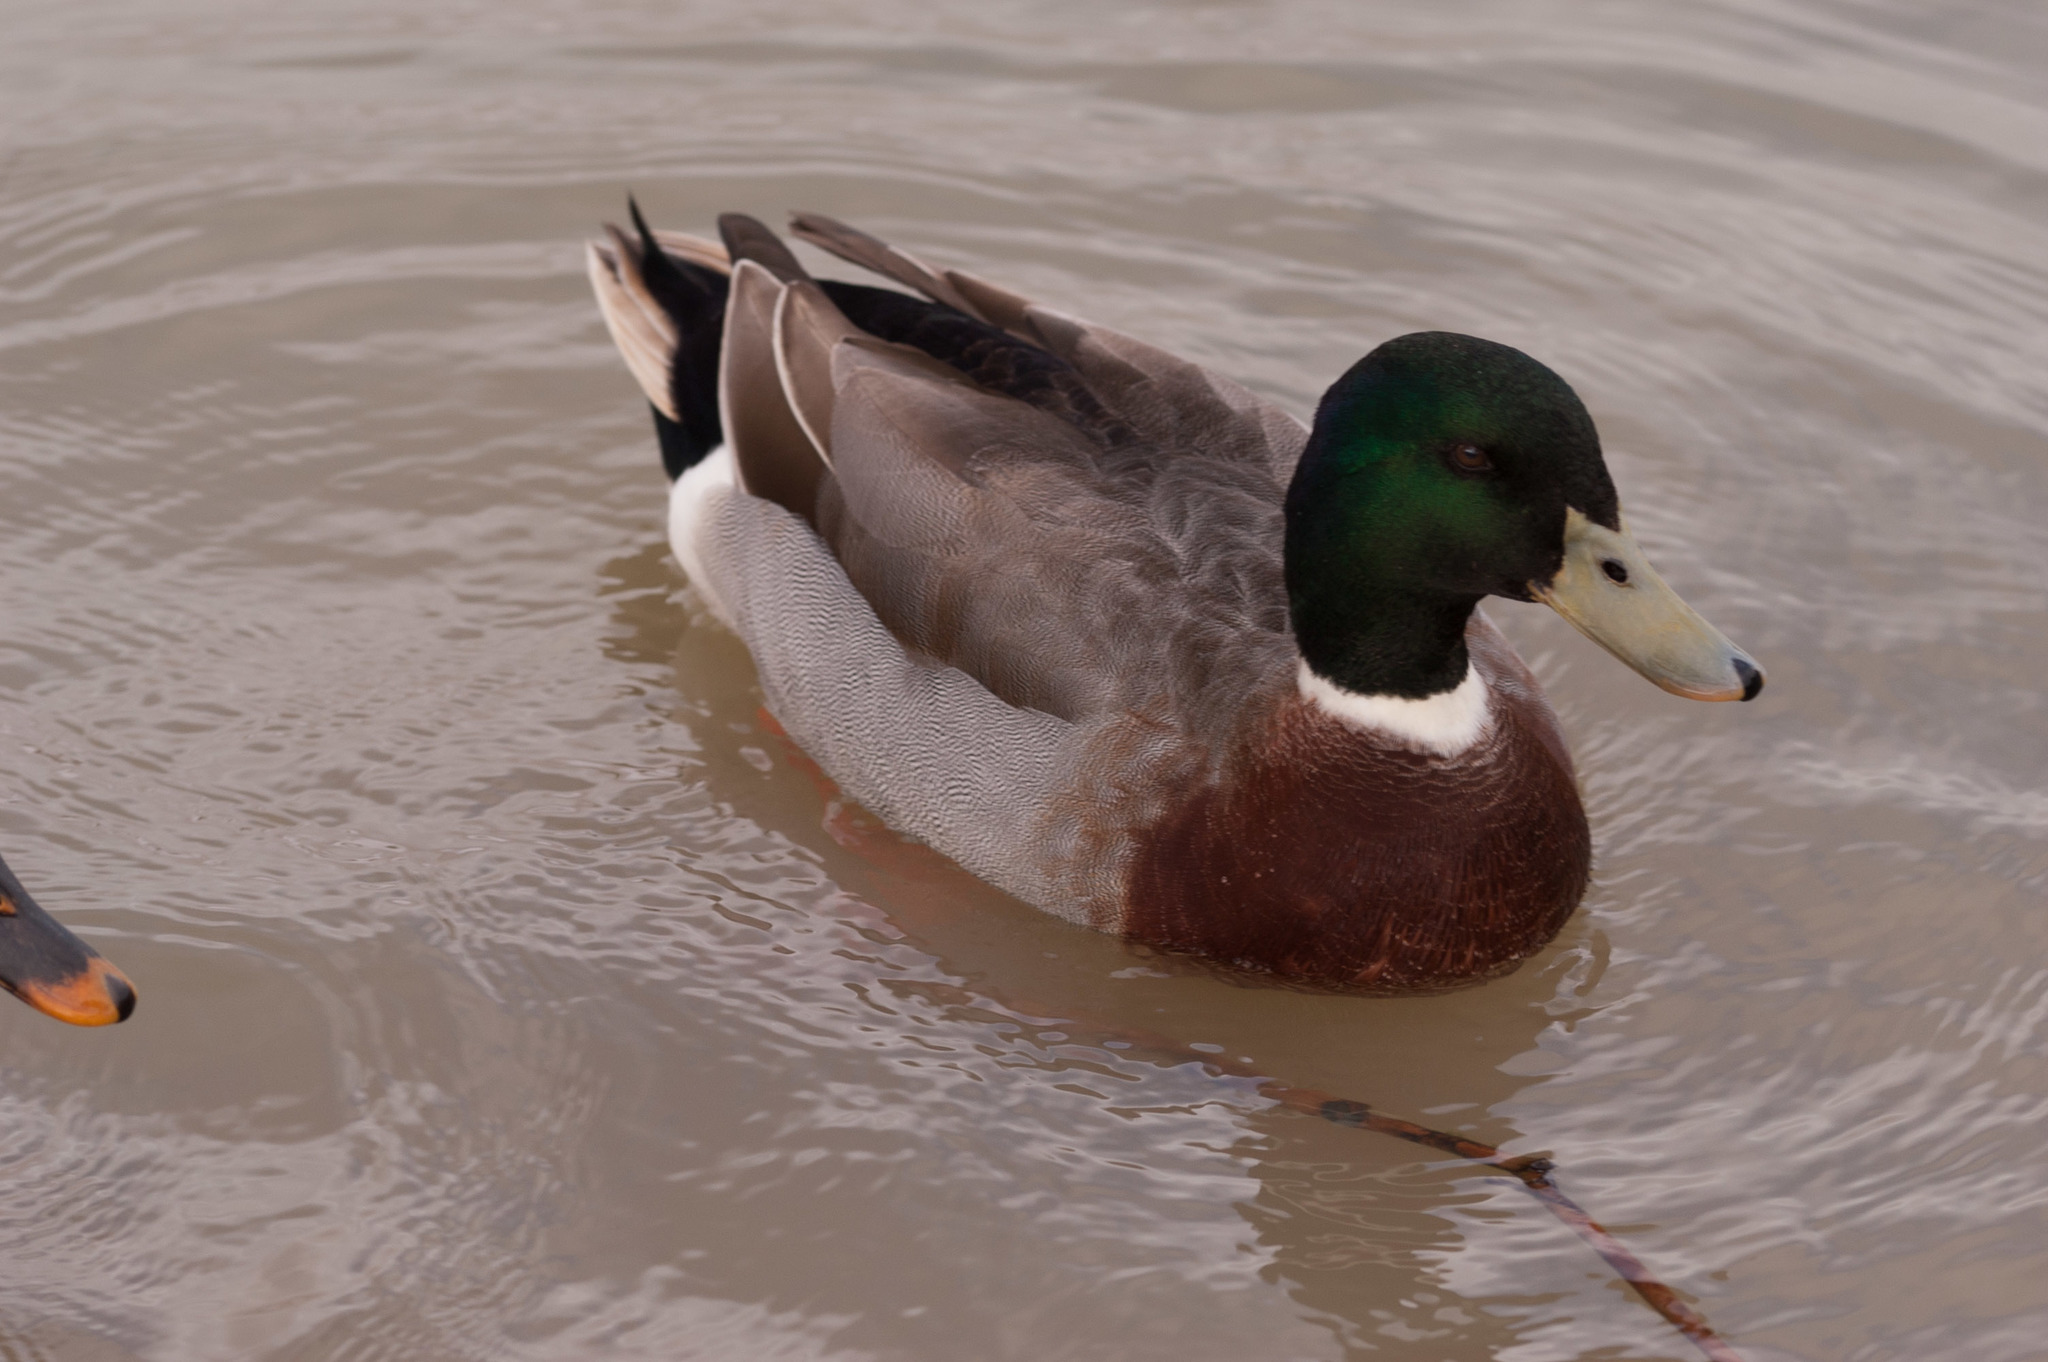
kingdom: Animalia
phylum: Chordata
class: Aves
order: Anseriformes
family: Anatidae
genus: Anas
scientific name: Anas platyrhynchos
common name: Mallard
